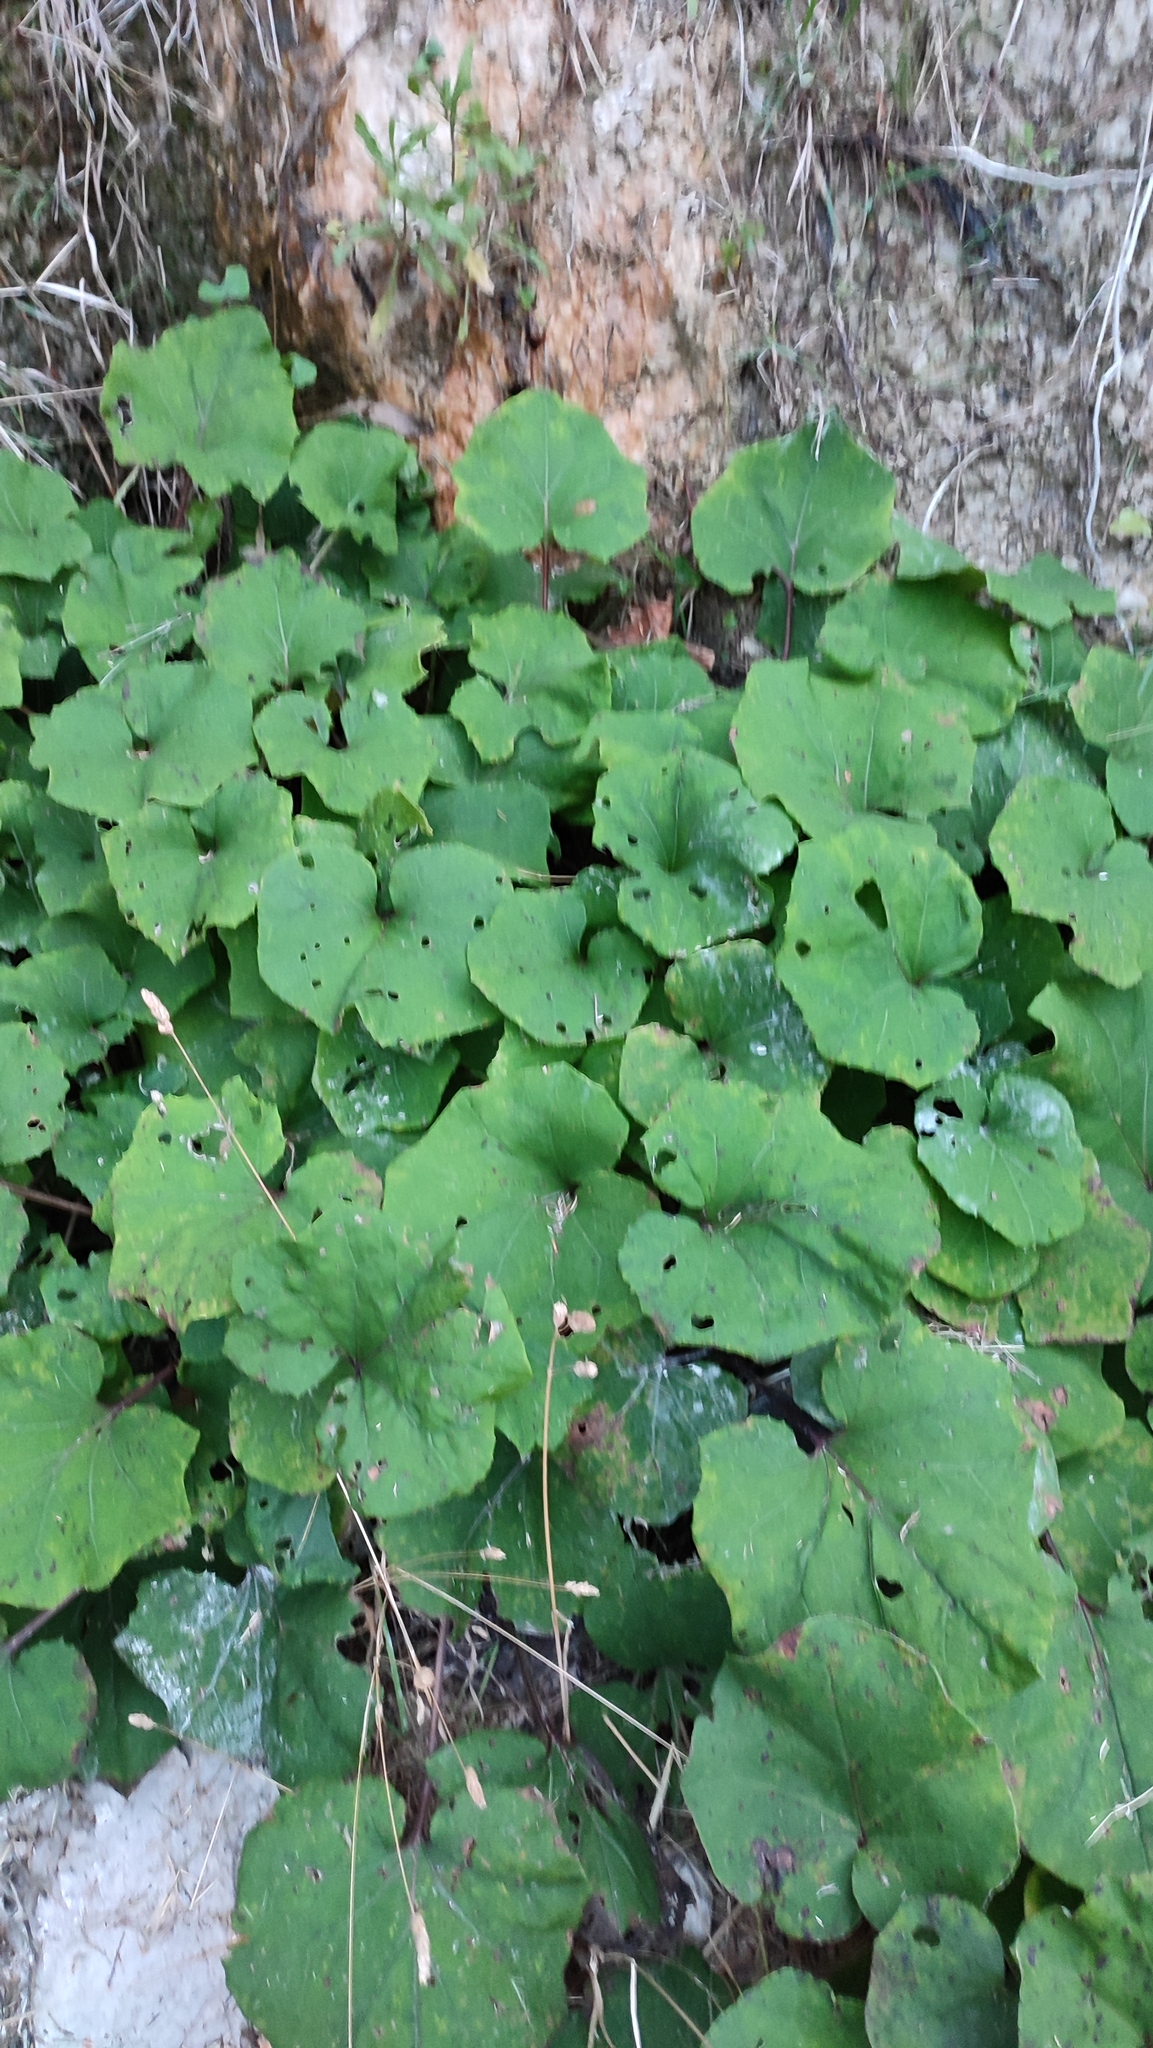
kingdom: Plantae
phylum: Tracheophyta
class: Magnoliopsida
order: Asterales
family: Asteraceae
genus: Tussilago
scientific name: Tussilago farfara
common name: Coltsfoot
